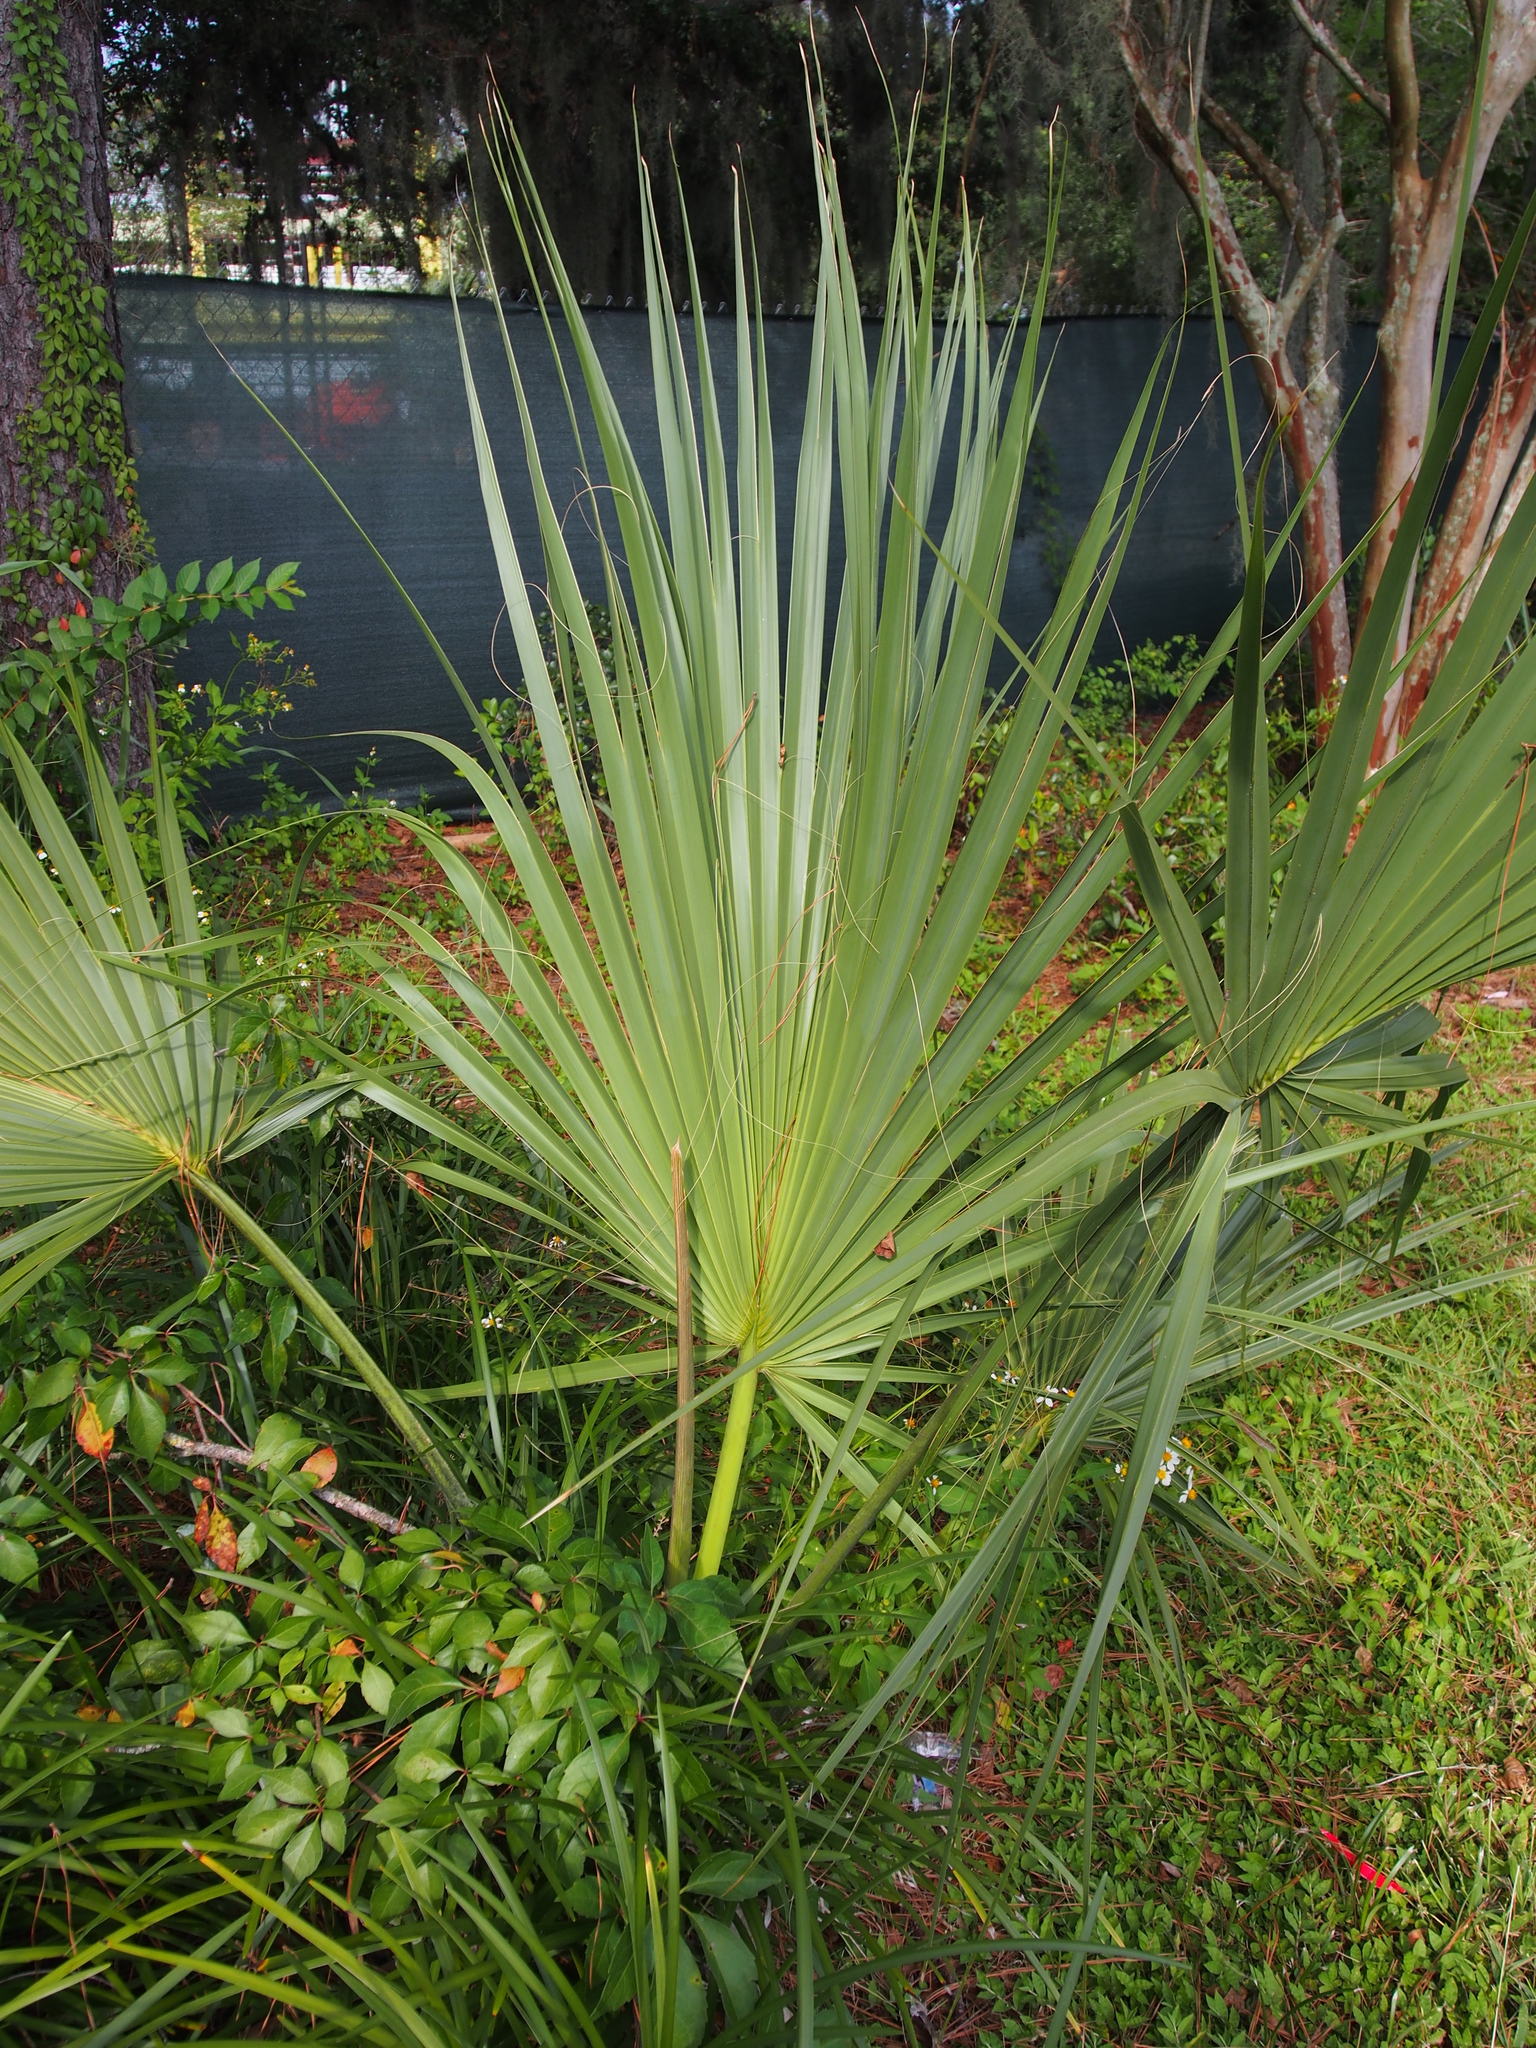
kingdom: Plantae
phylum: Tracheophyta
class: Liliopsida
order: Arecales
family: Arecaceae
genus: Sabal
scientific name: Sabal palmetto
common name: Blue palmetto
